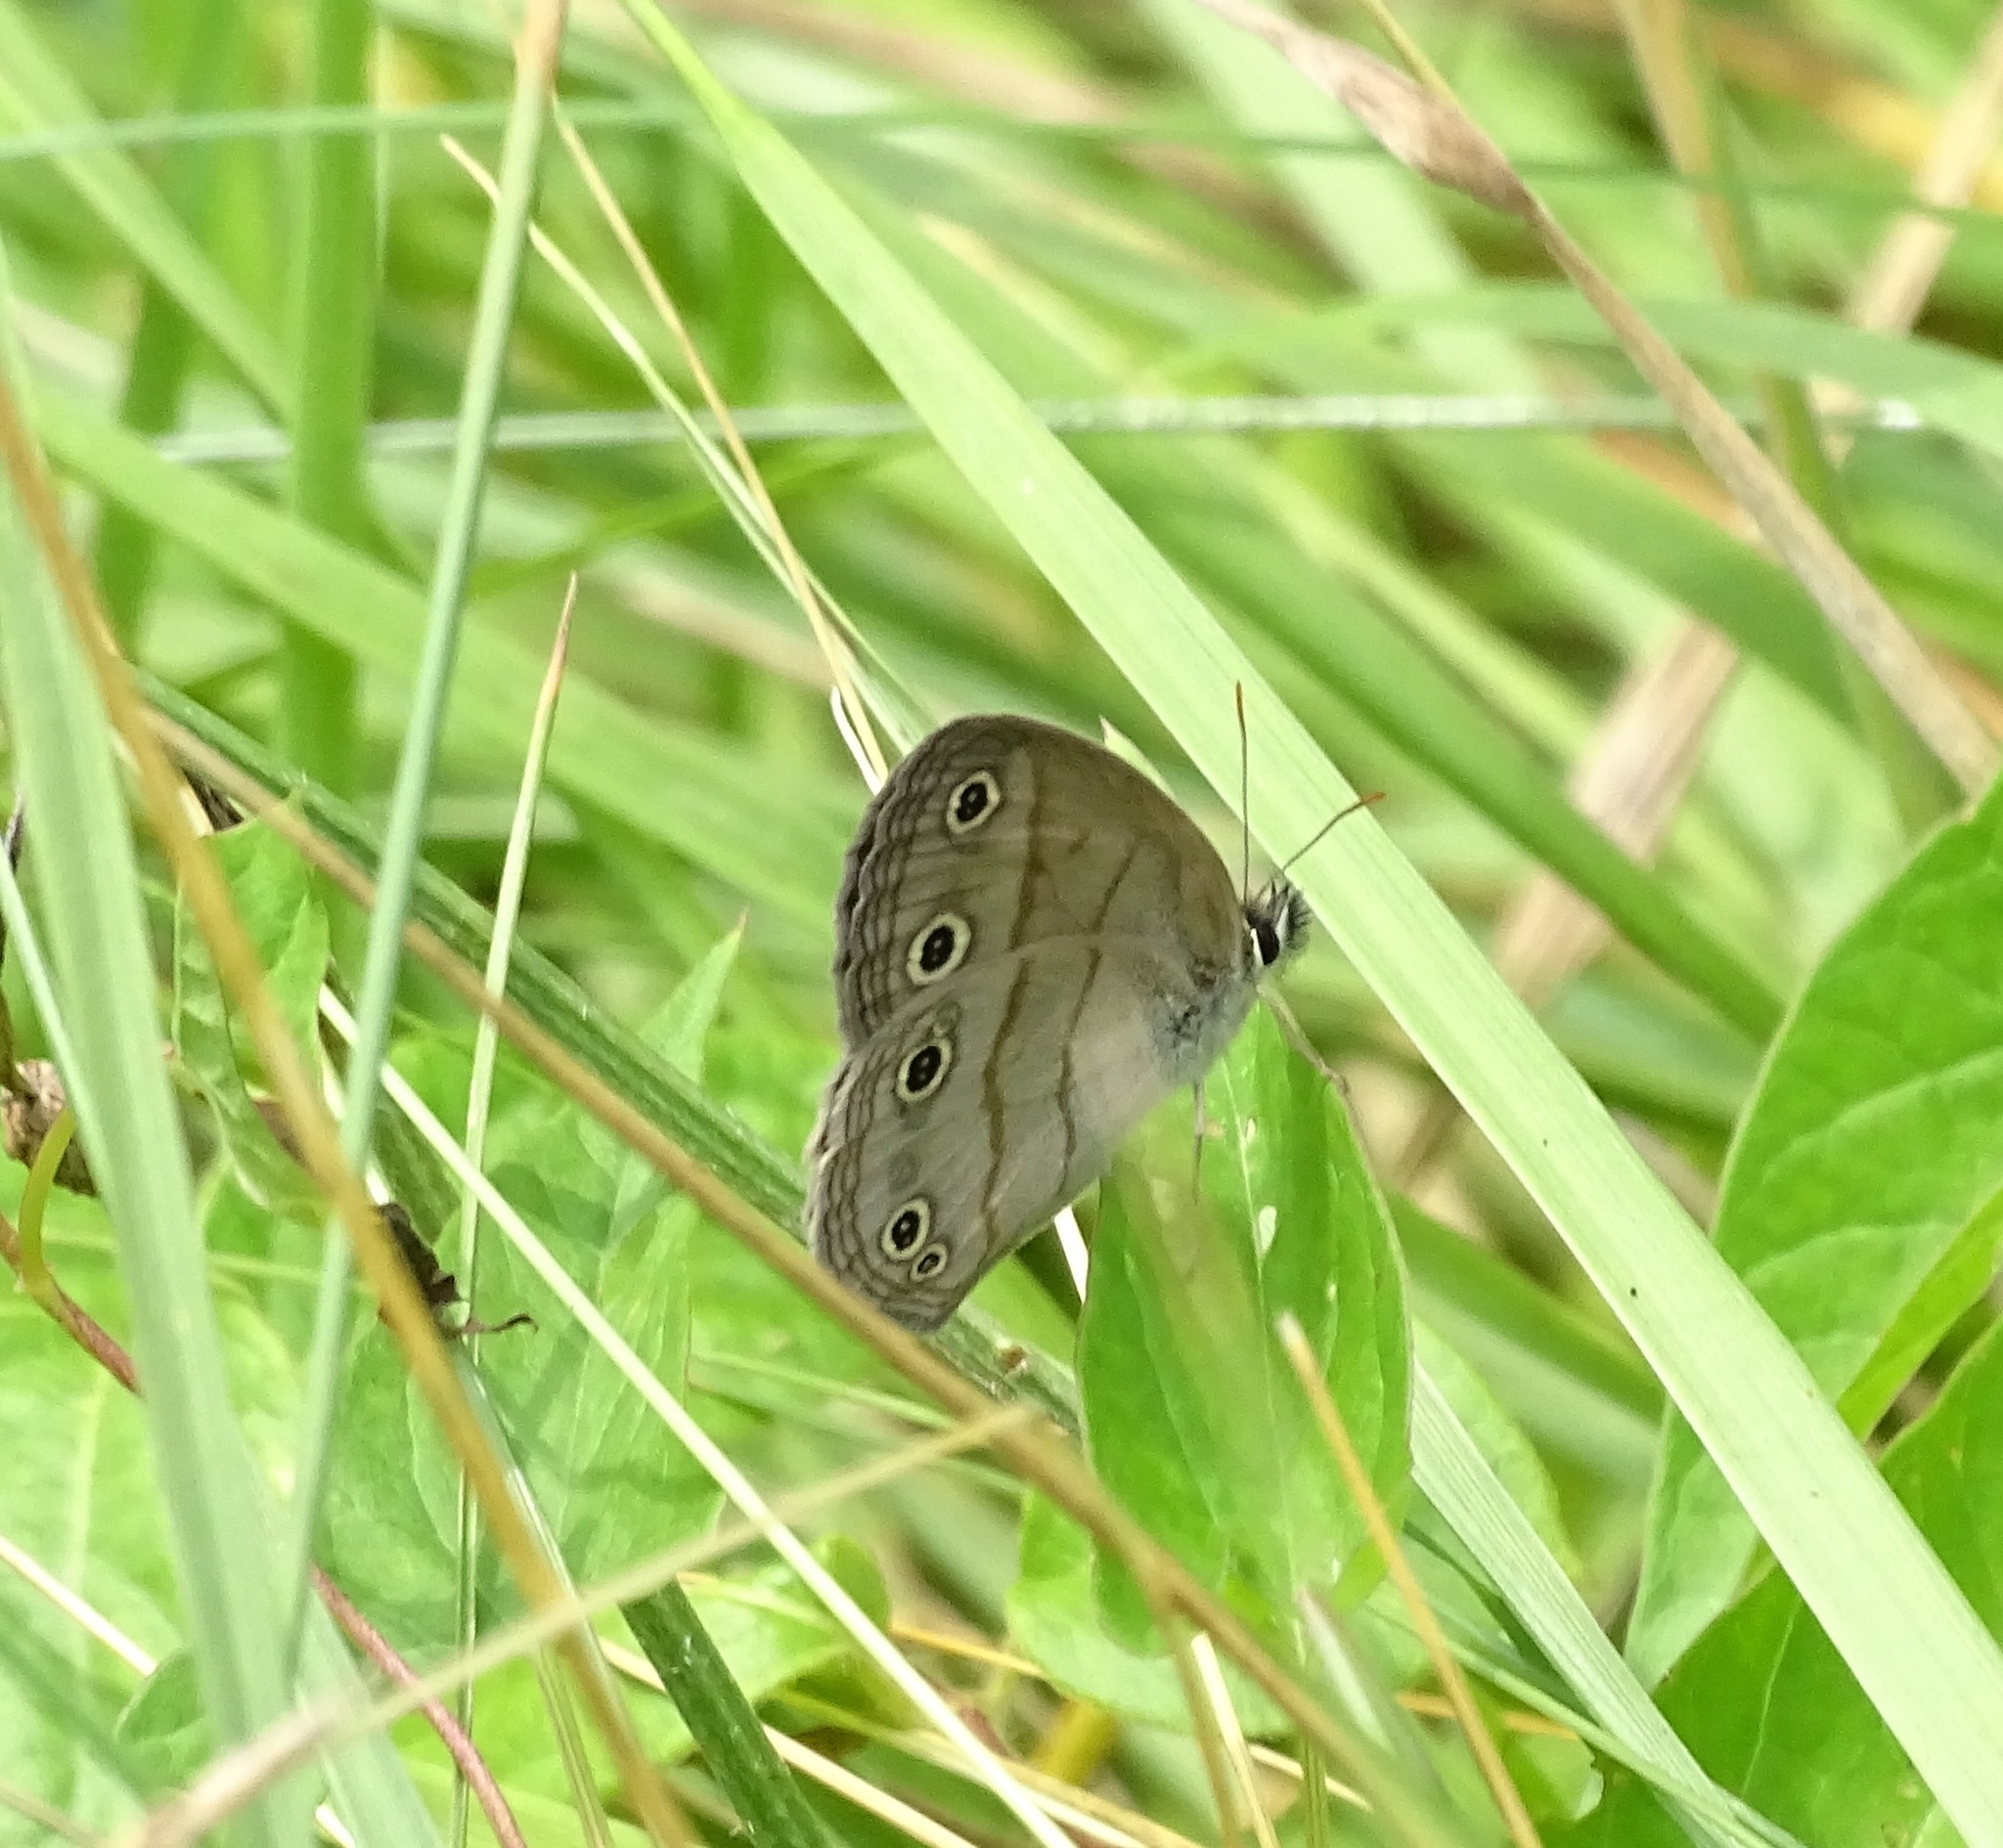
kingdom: Animalia
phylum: Arthropoda
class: Insecta
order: Lepidoptera
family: Nymphalidae
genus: Euptychia
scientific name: Euptychia cymela
